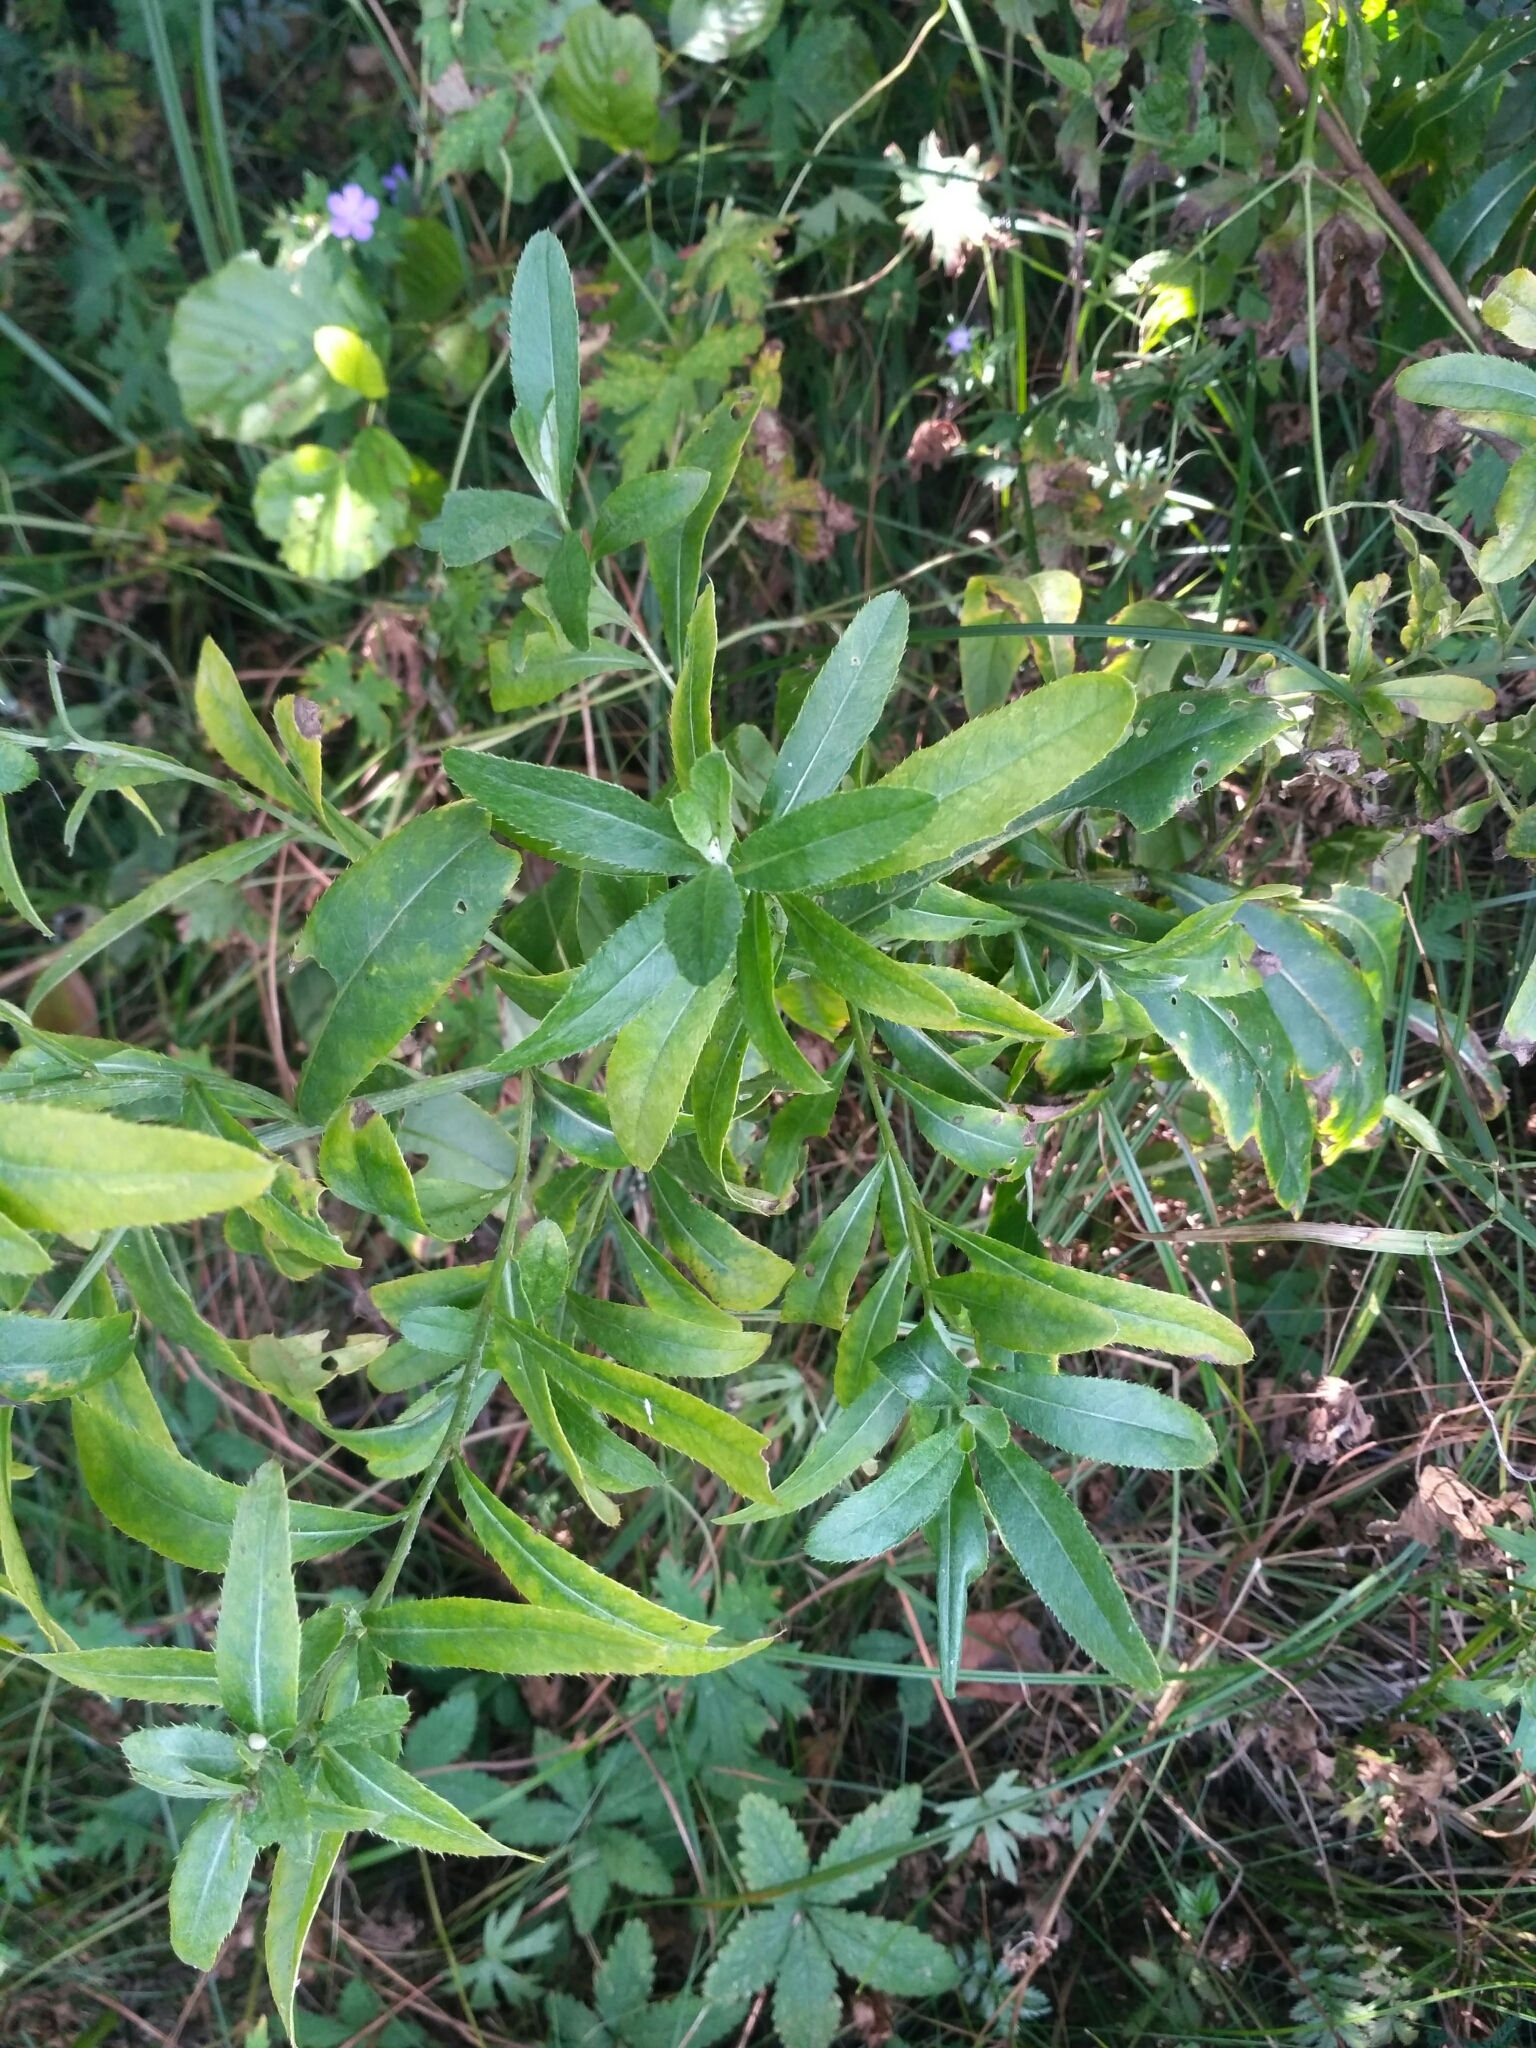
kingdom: Plantae
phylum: Tracheophyta
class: Magnoliopsida
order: Asterales
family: Asteraceae
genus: Cirsium
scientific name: Cirsium arvense
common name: Creeping thistle
